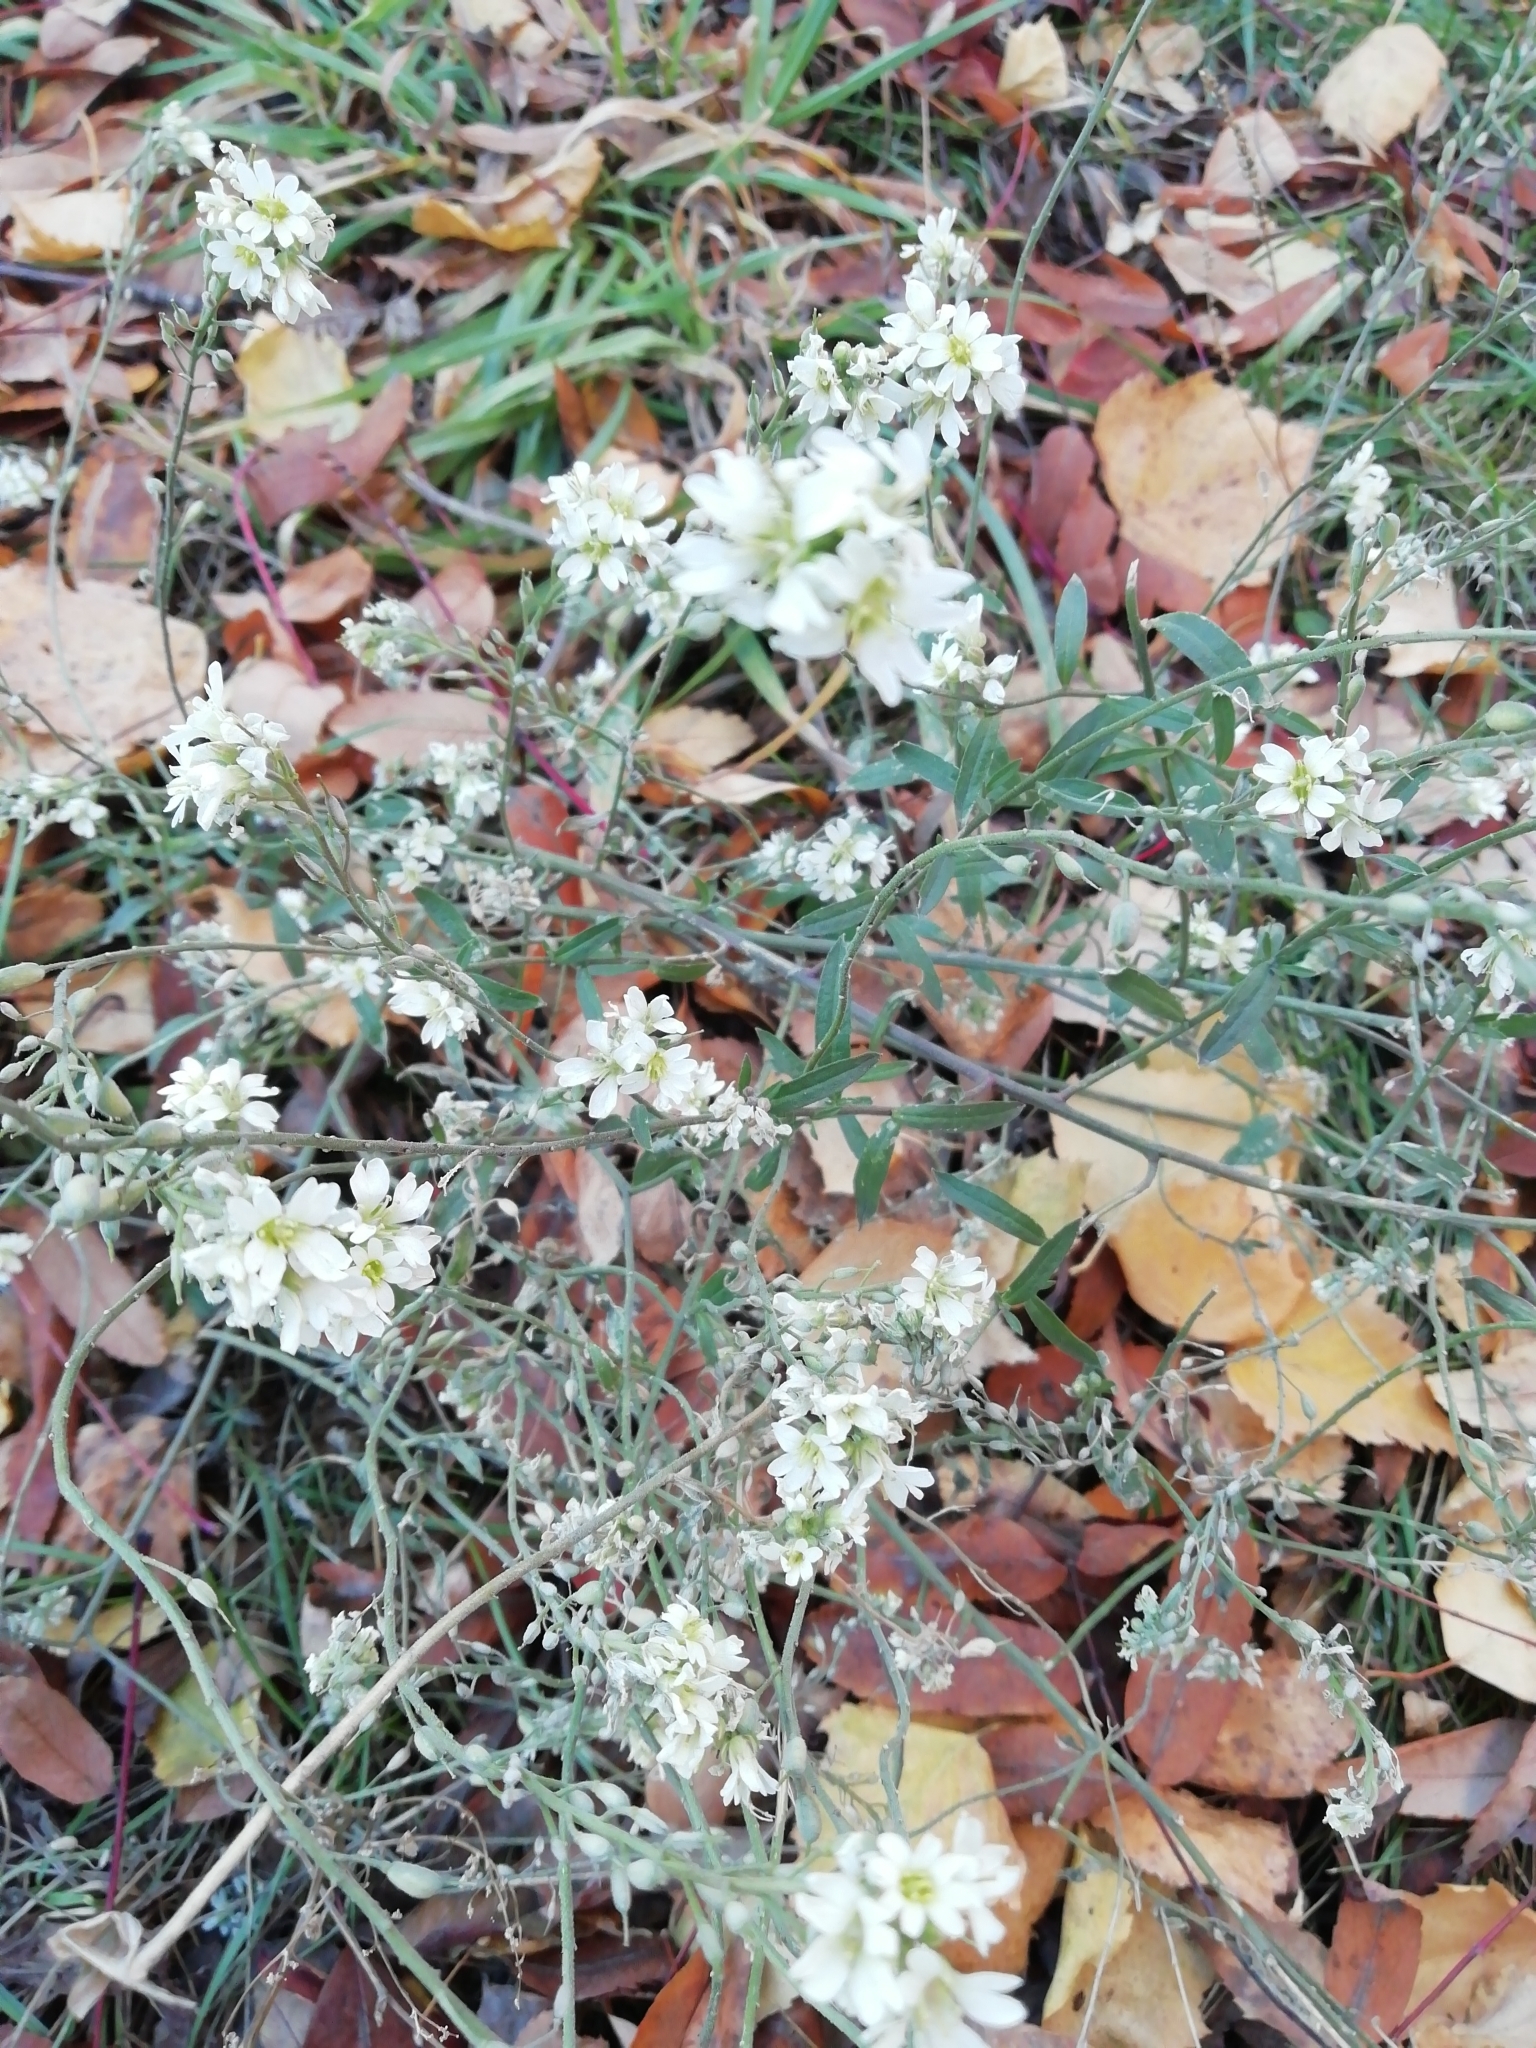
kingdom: Plantae
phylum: Tracheophyta
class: Magnoliopsida
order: Brassicales
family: Brassicaceae
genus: Berteroa
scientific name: Berteroa incana
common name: Hoary alison
